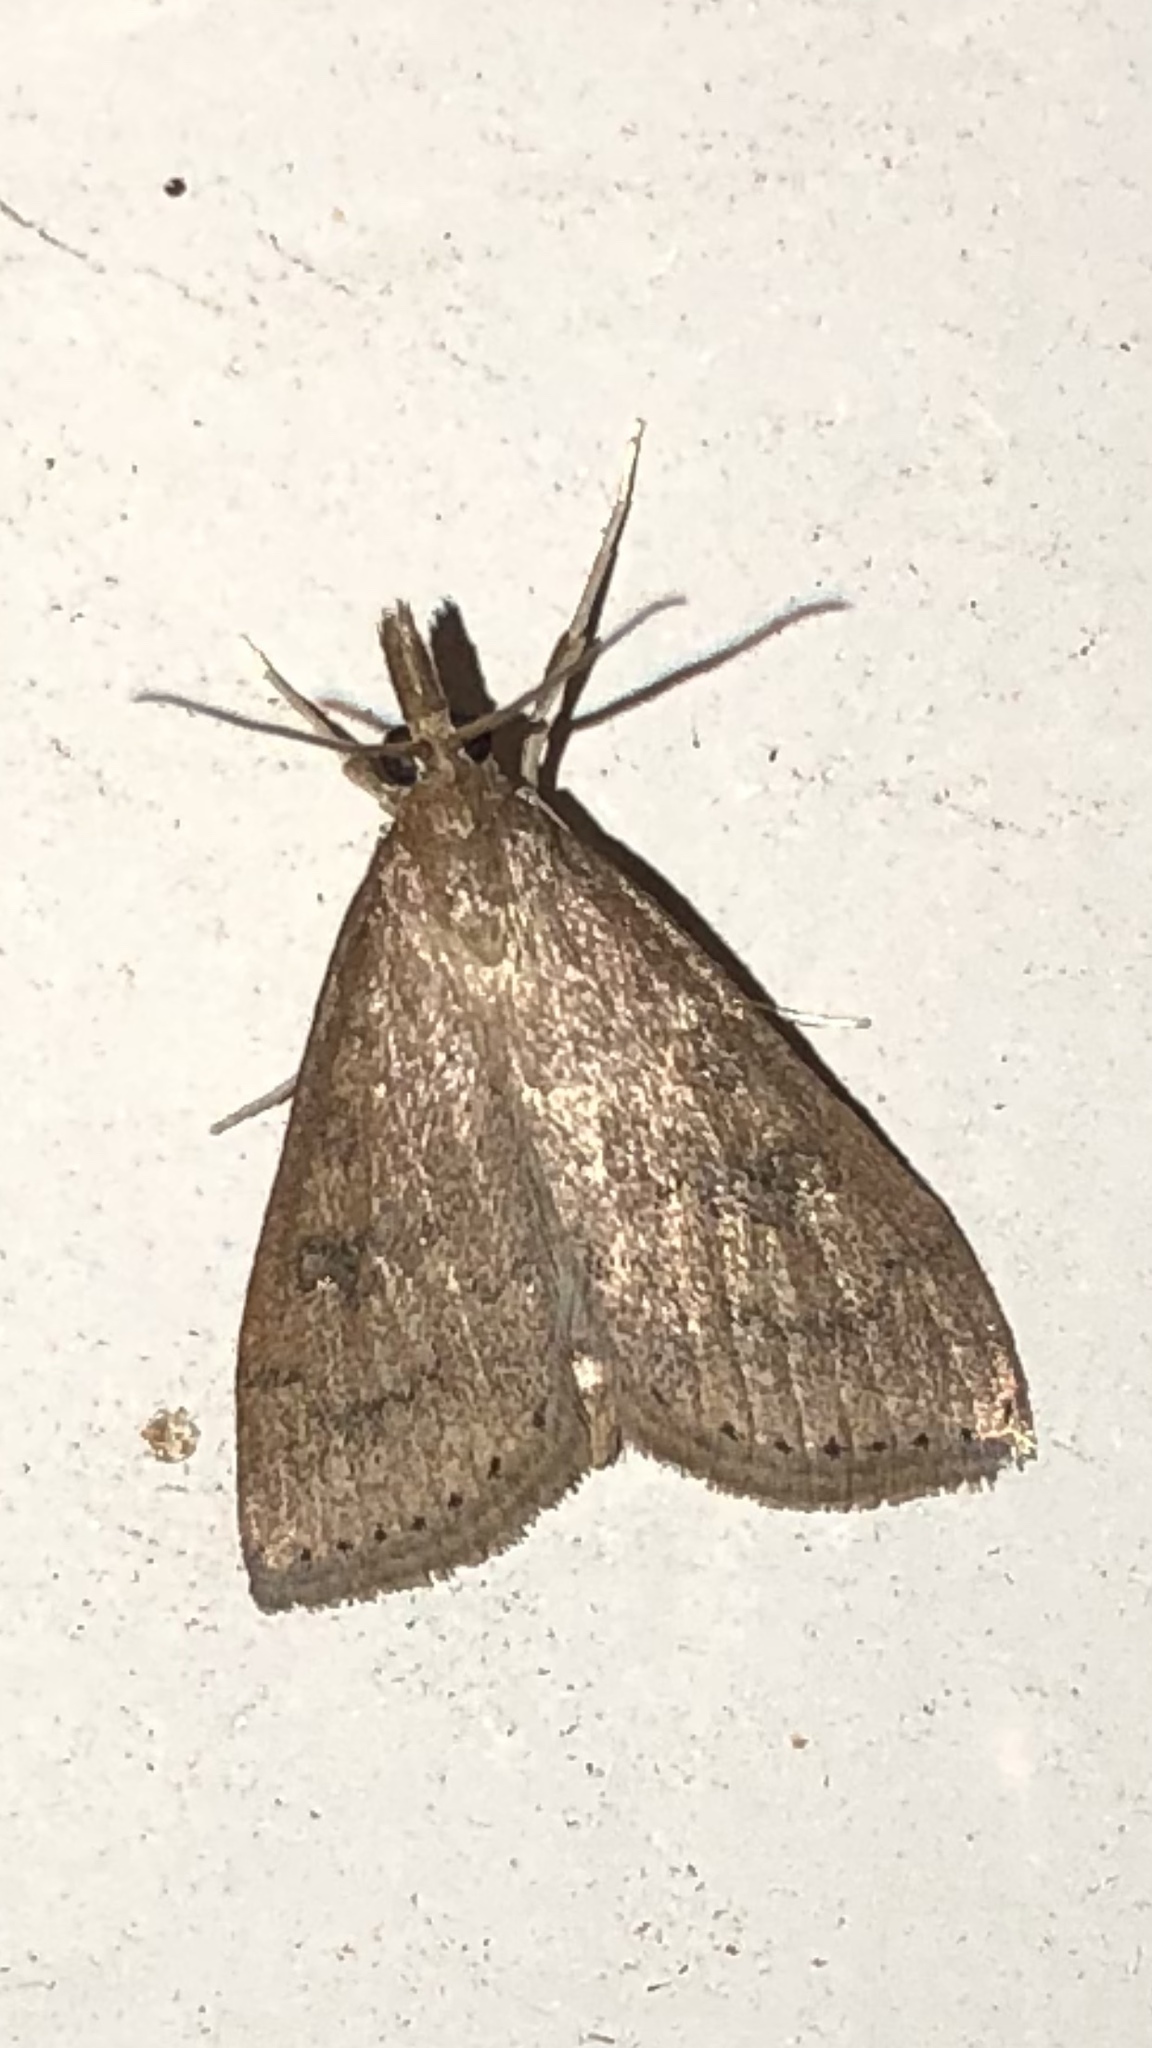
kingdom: Animalia
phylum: Arthropoda
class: Insecta
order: Lepidoptera
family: Crambidae
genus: Udea
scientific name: Udea rubigalis
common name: Celery leaftier moth
